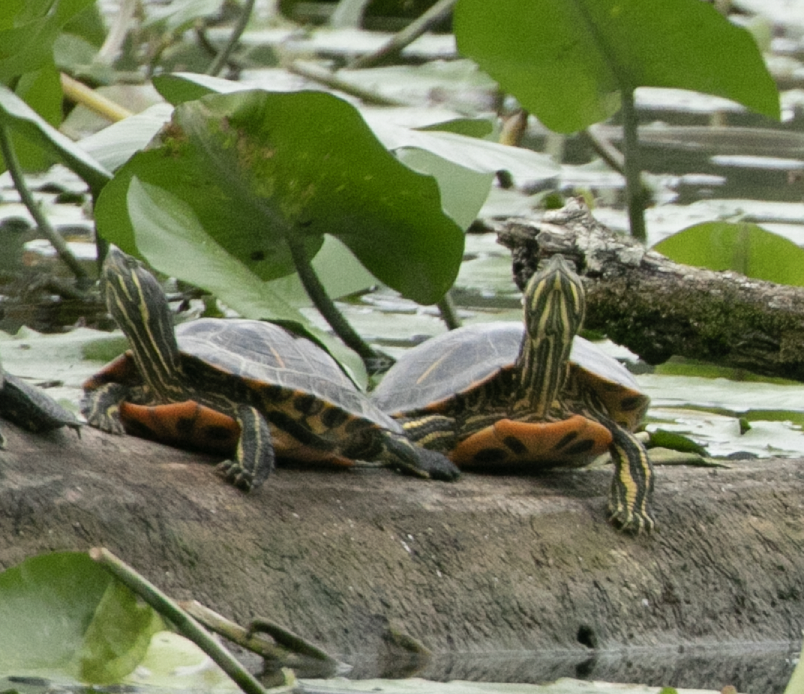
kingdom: Animalia
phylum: Chordata
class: Testudines
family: Emydidae
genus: Trachemys
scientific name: Trachemys scripta
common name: Slider
